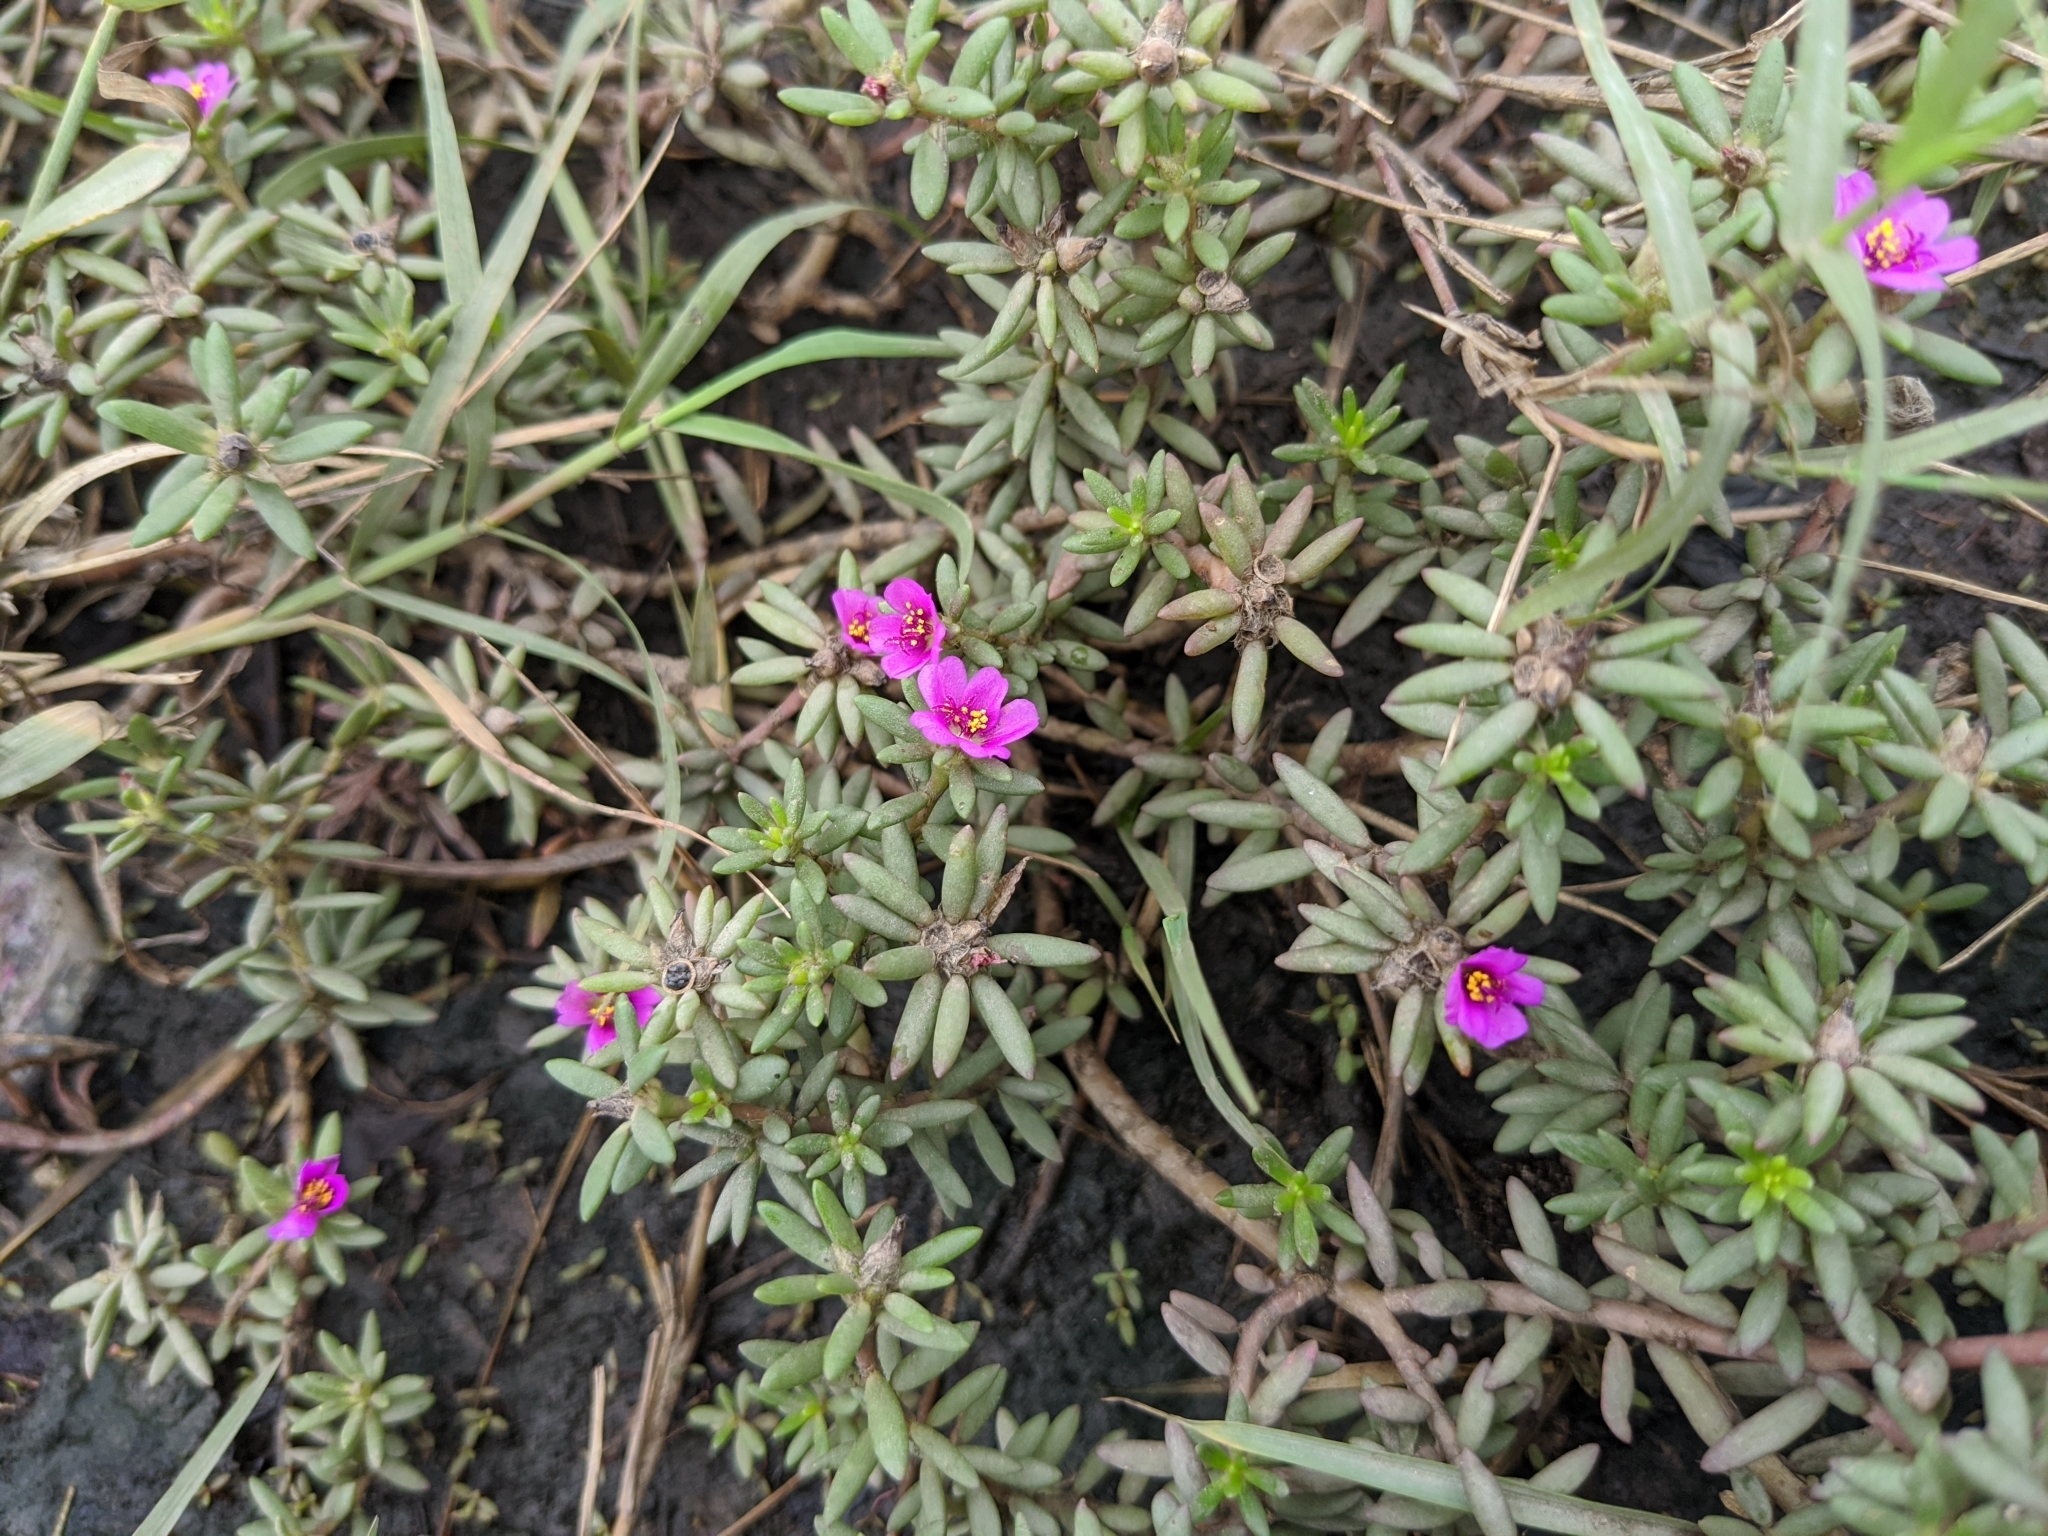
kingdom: Plantae
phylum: Tracheophyta
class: Magnoliopsida
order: Caryophyllales
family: Portulacaceae
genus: Portulaca
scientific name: Portulaca pilosa
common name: Kiss me quick
